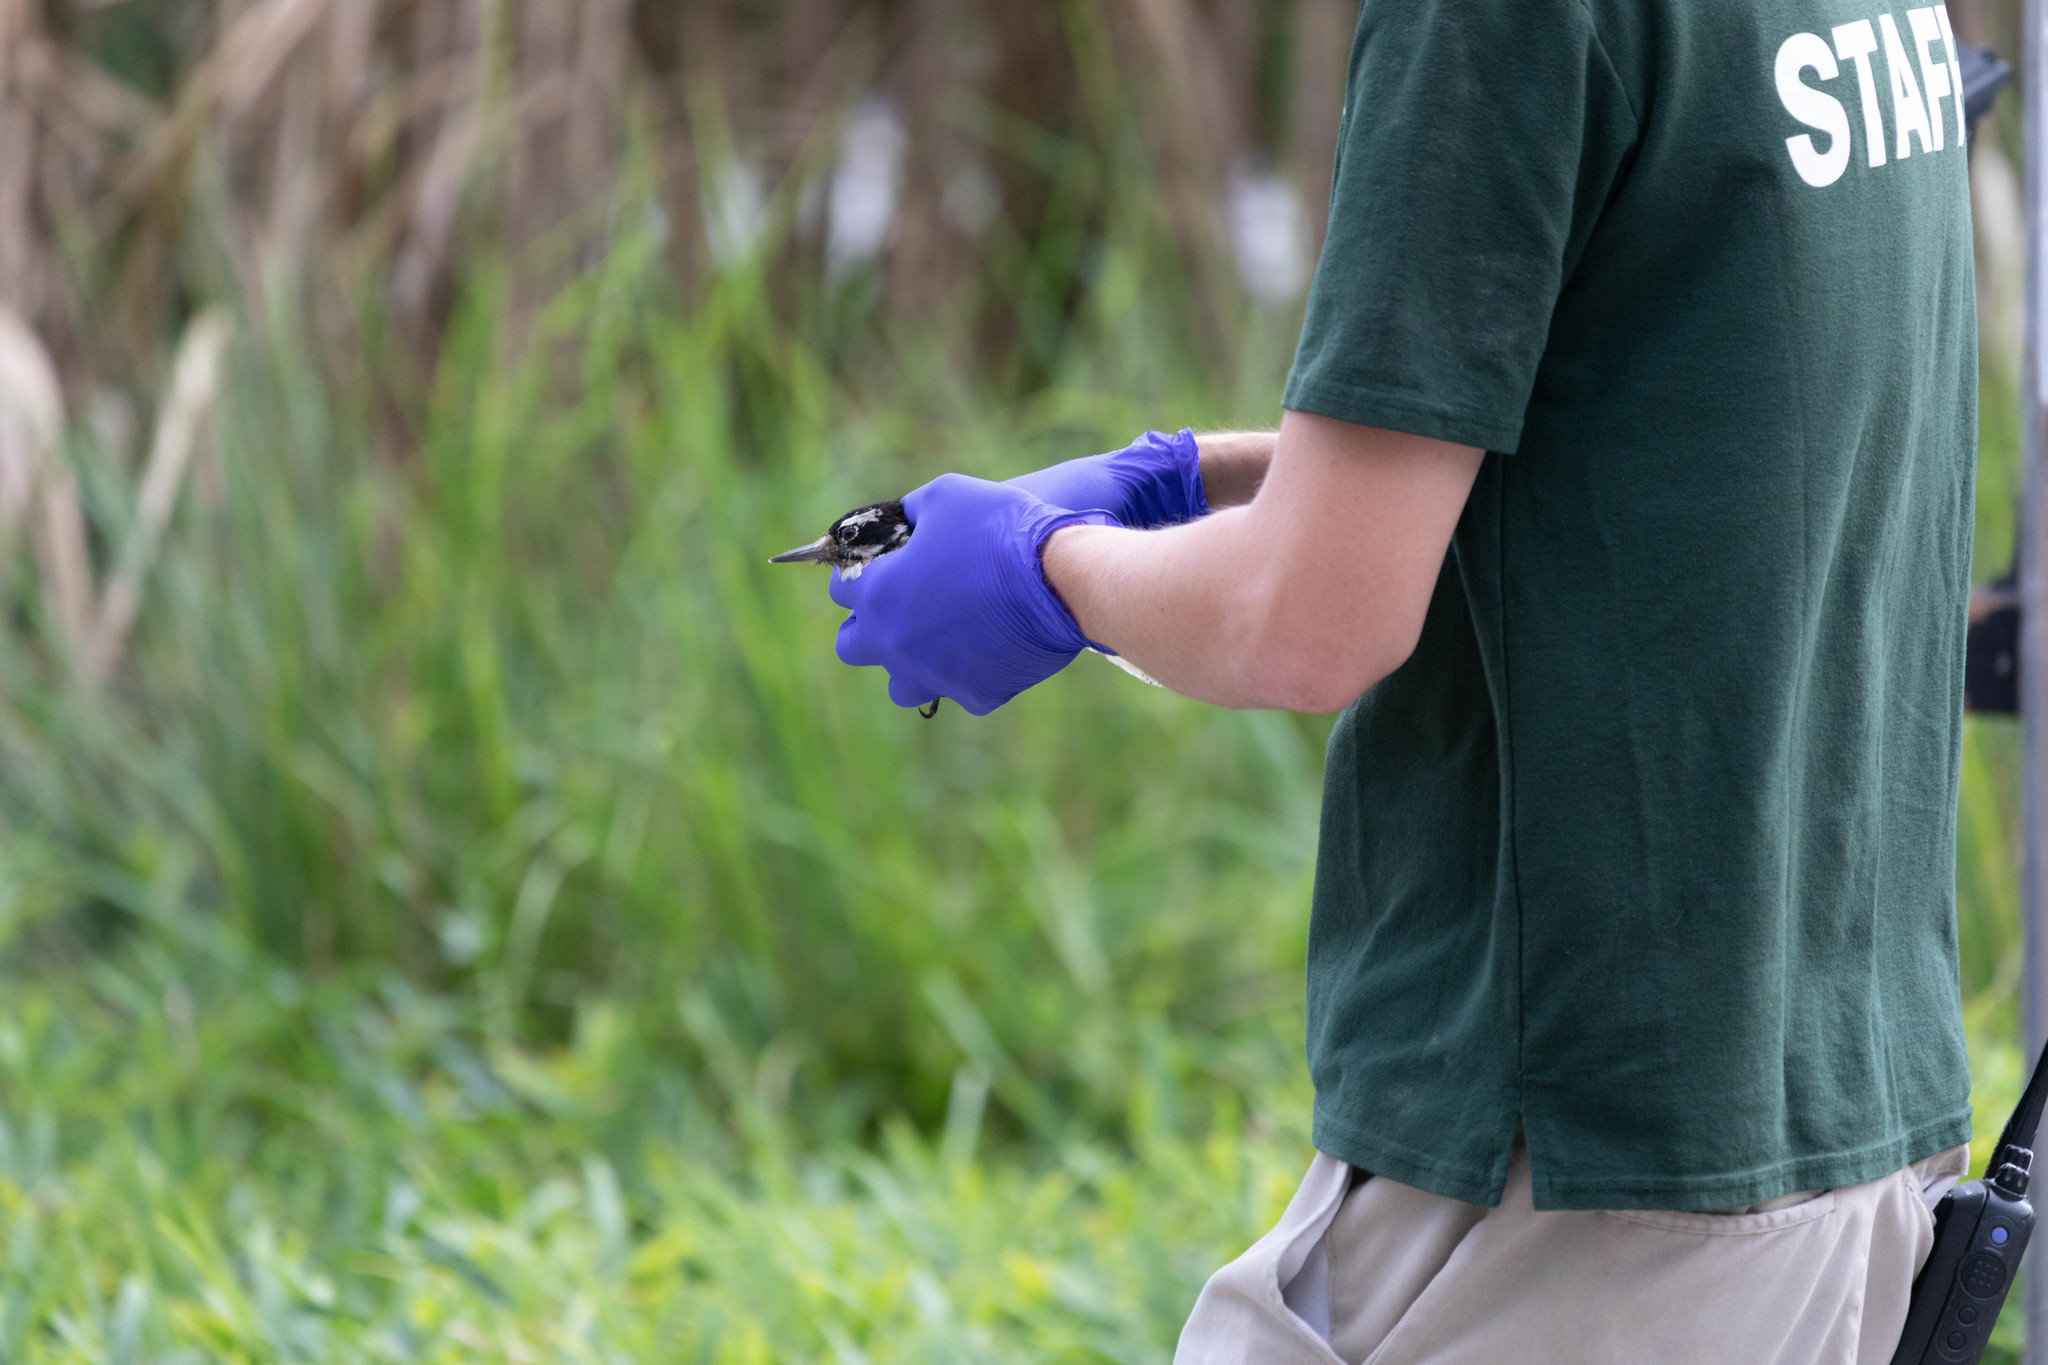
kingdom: Animalia
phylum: Chordata
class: Aves
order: Piciformes
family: Picidae
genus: Leuconotopicus
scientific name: Leuconotopicus villosus
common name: Hairy woodpecker
